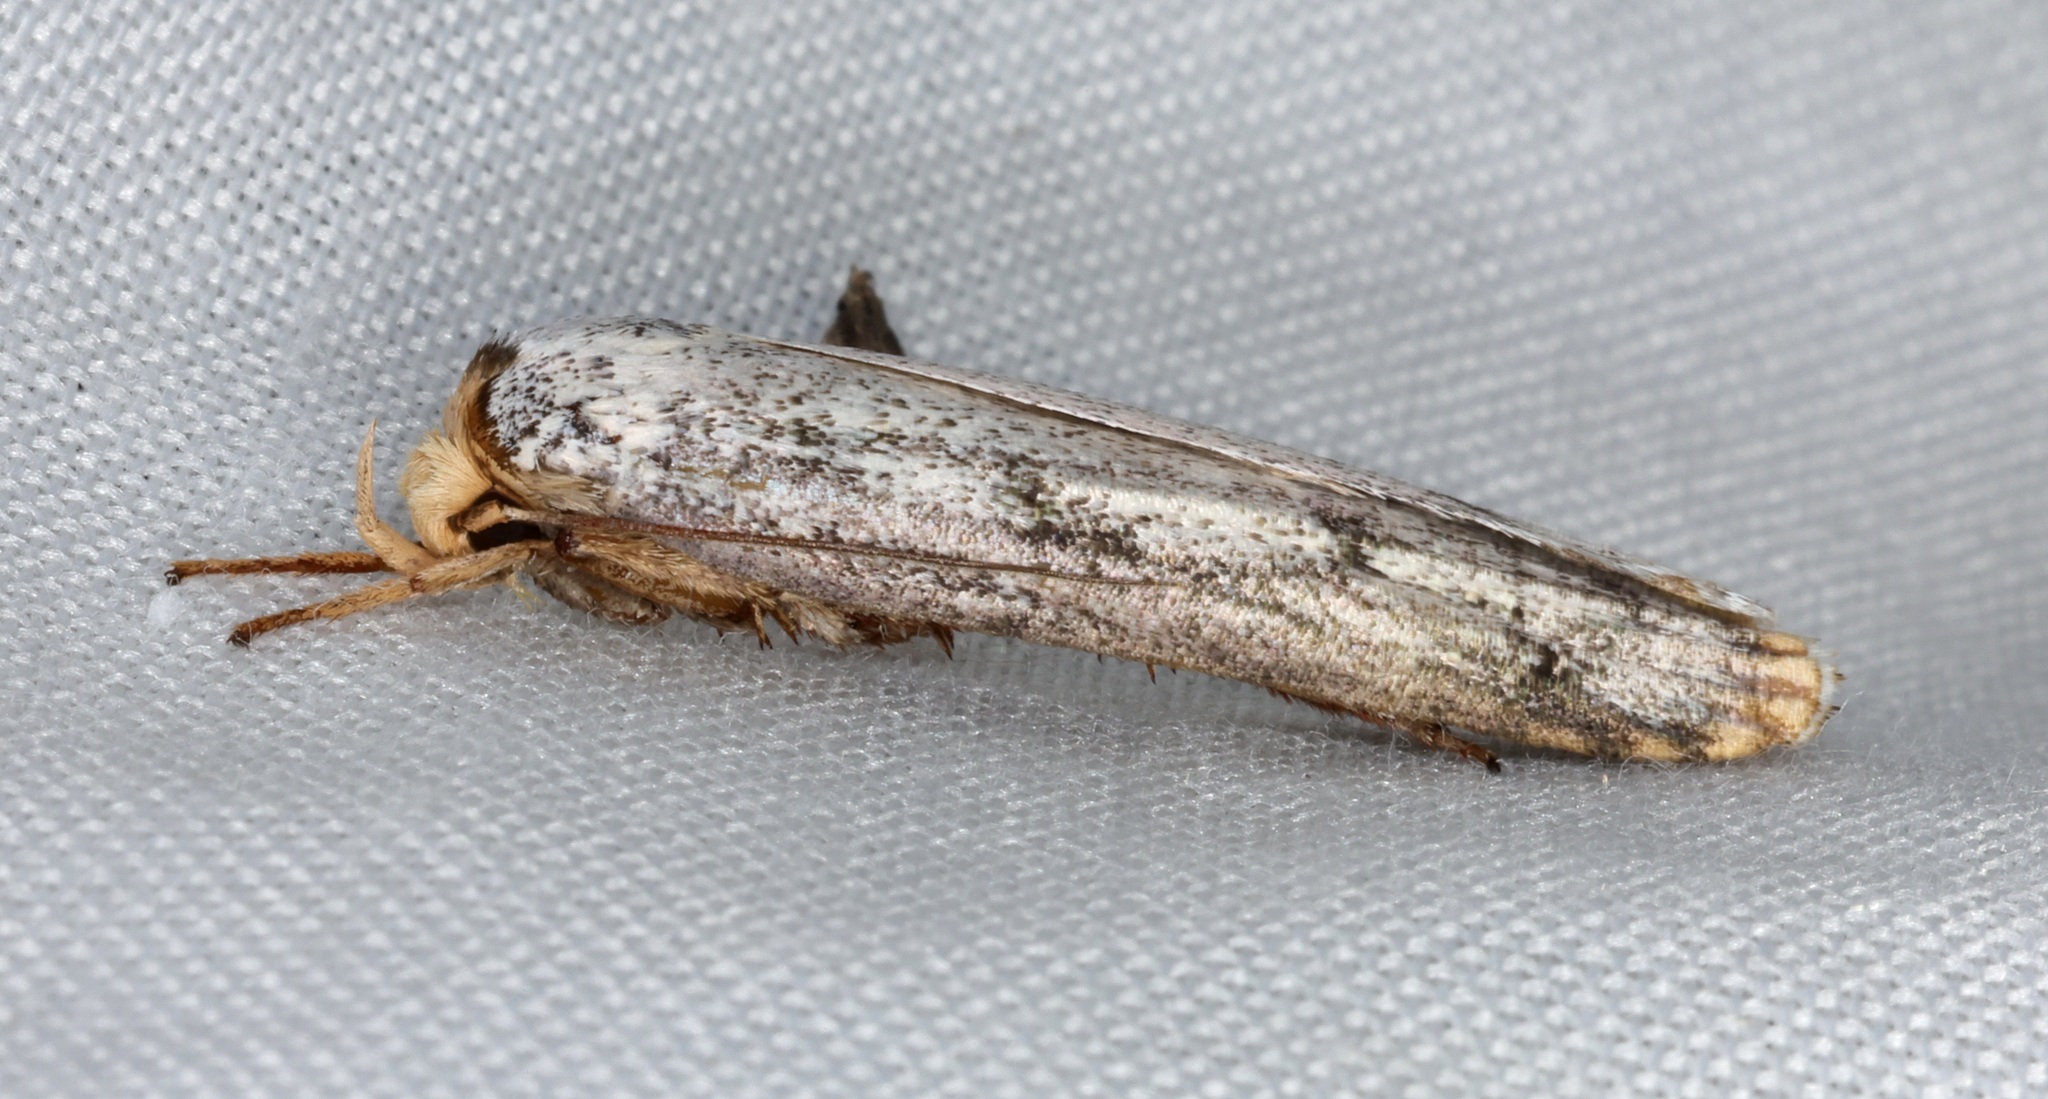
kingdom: Animalia
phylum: Arthropoda
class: Insecta
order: Lepidoptera
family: Xyloryctidae
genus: Thymiatris
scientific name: Thymiatris
